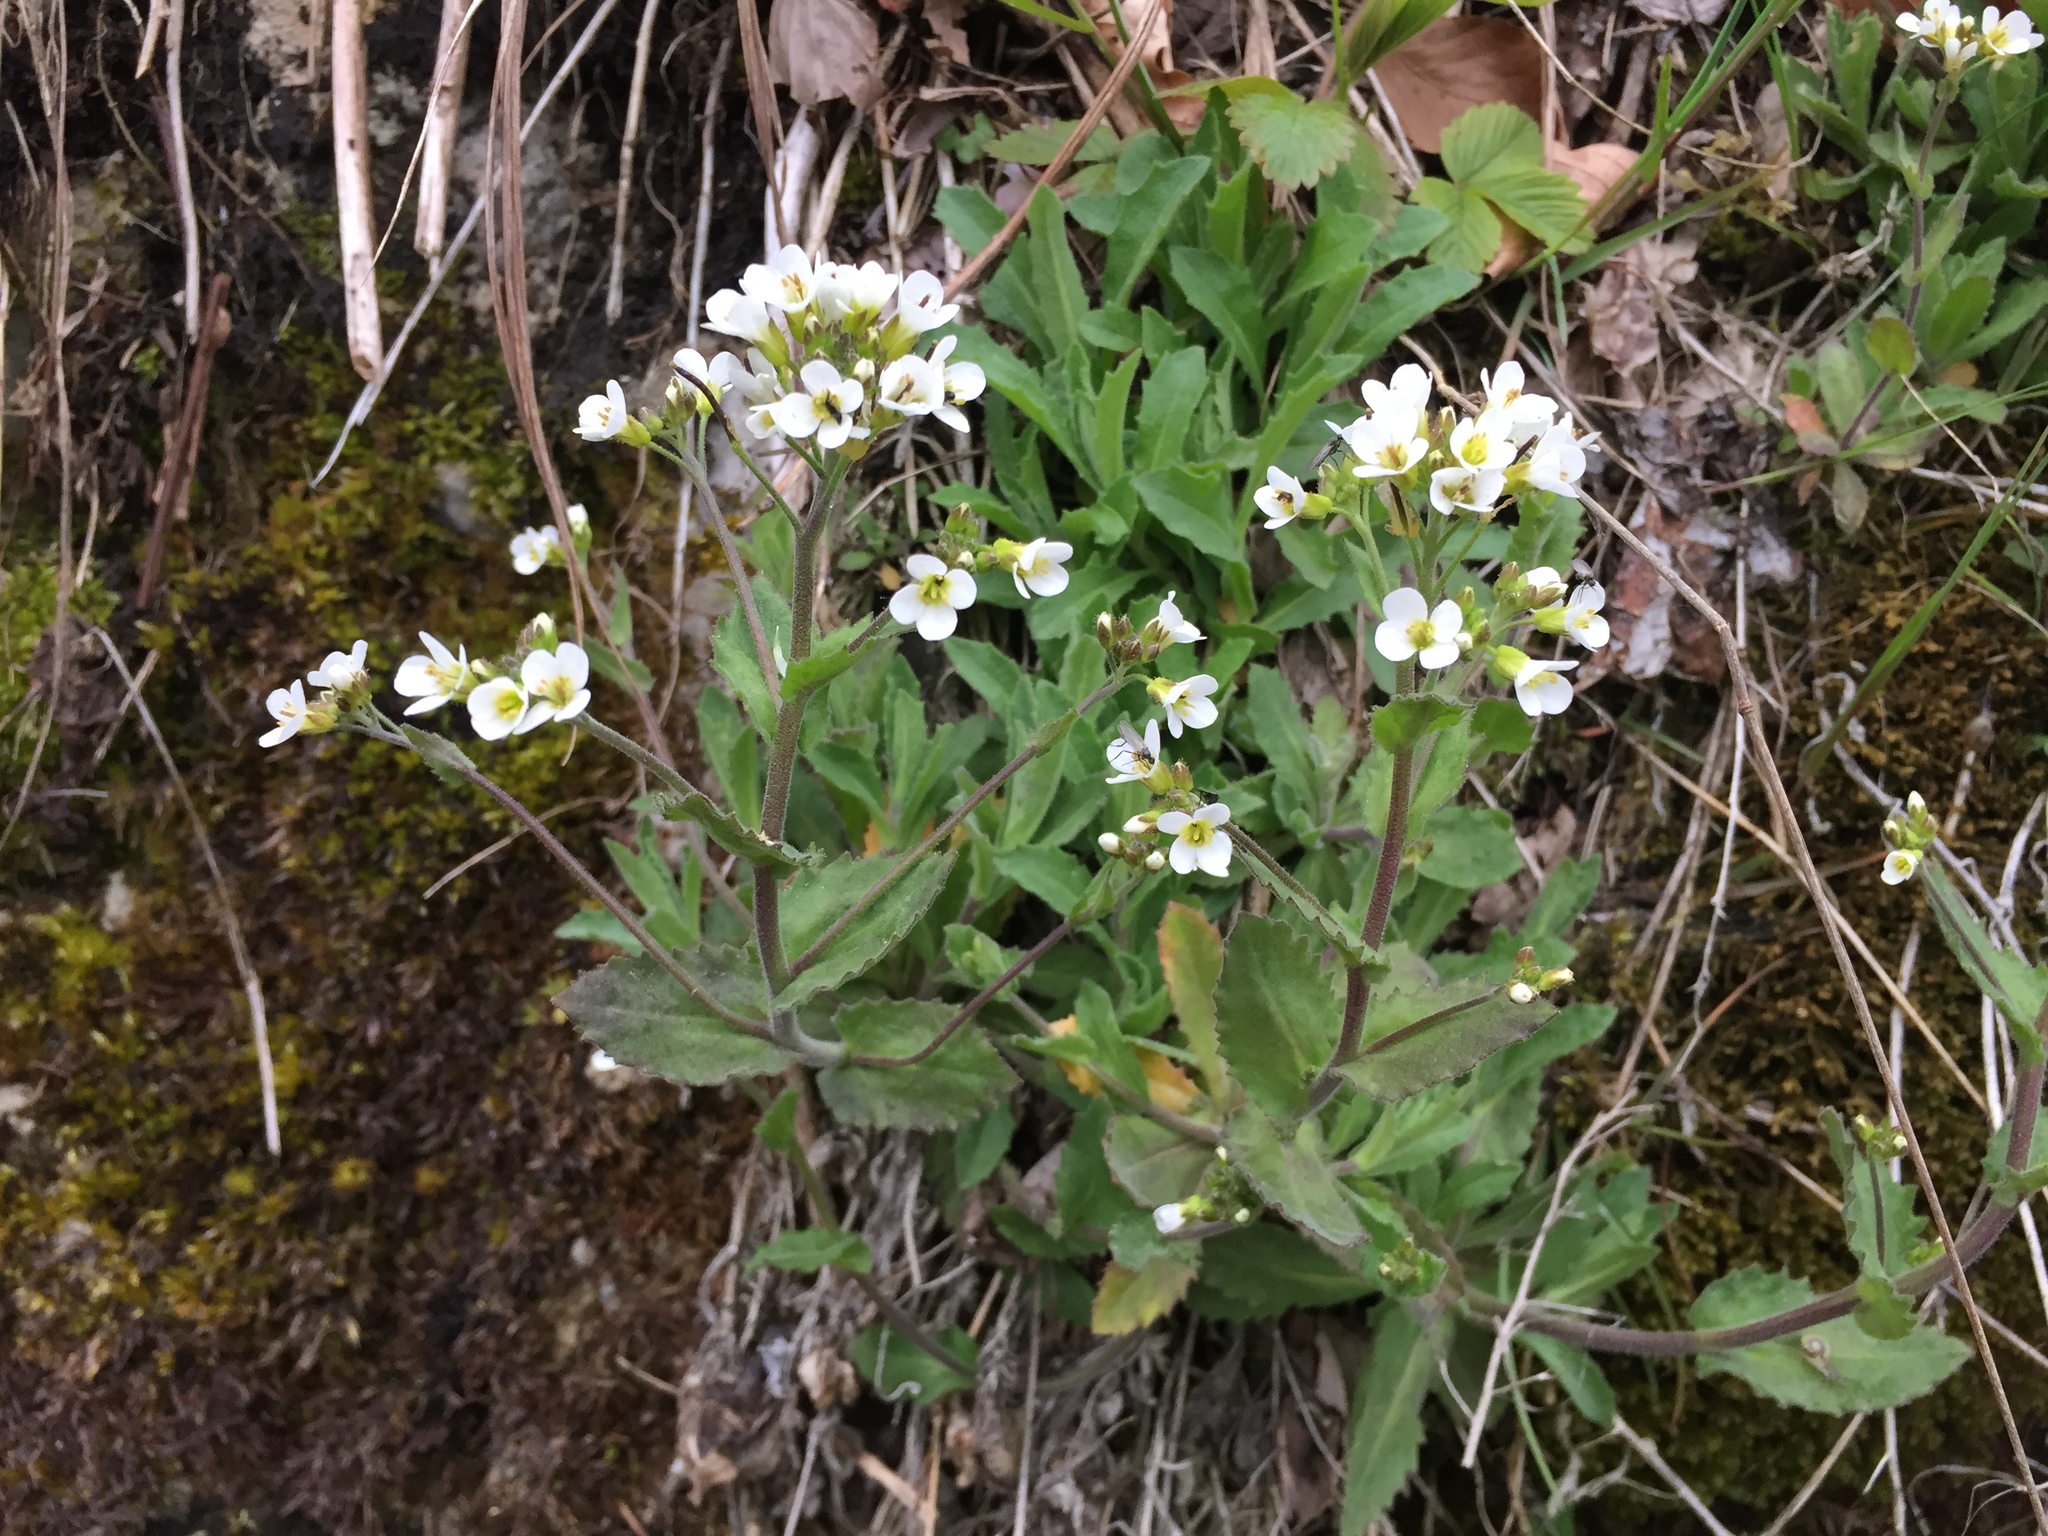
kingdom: Plantae
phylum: Tracheophyta
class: Magnoliopsida
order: Brassicales
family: Brassicaceae
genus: Arabis
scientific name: Arabis alpina
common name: Alpine rock-cress
